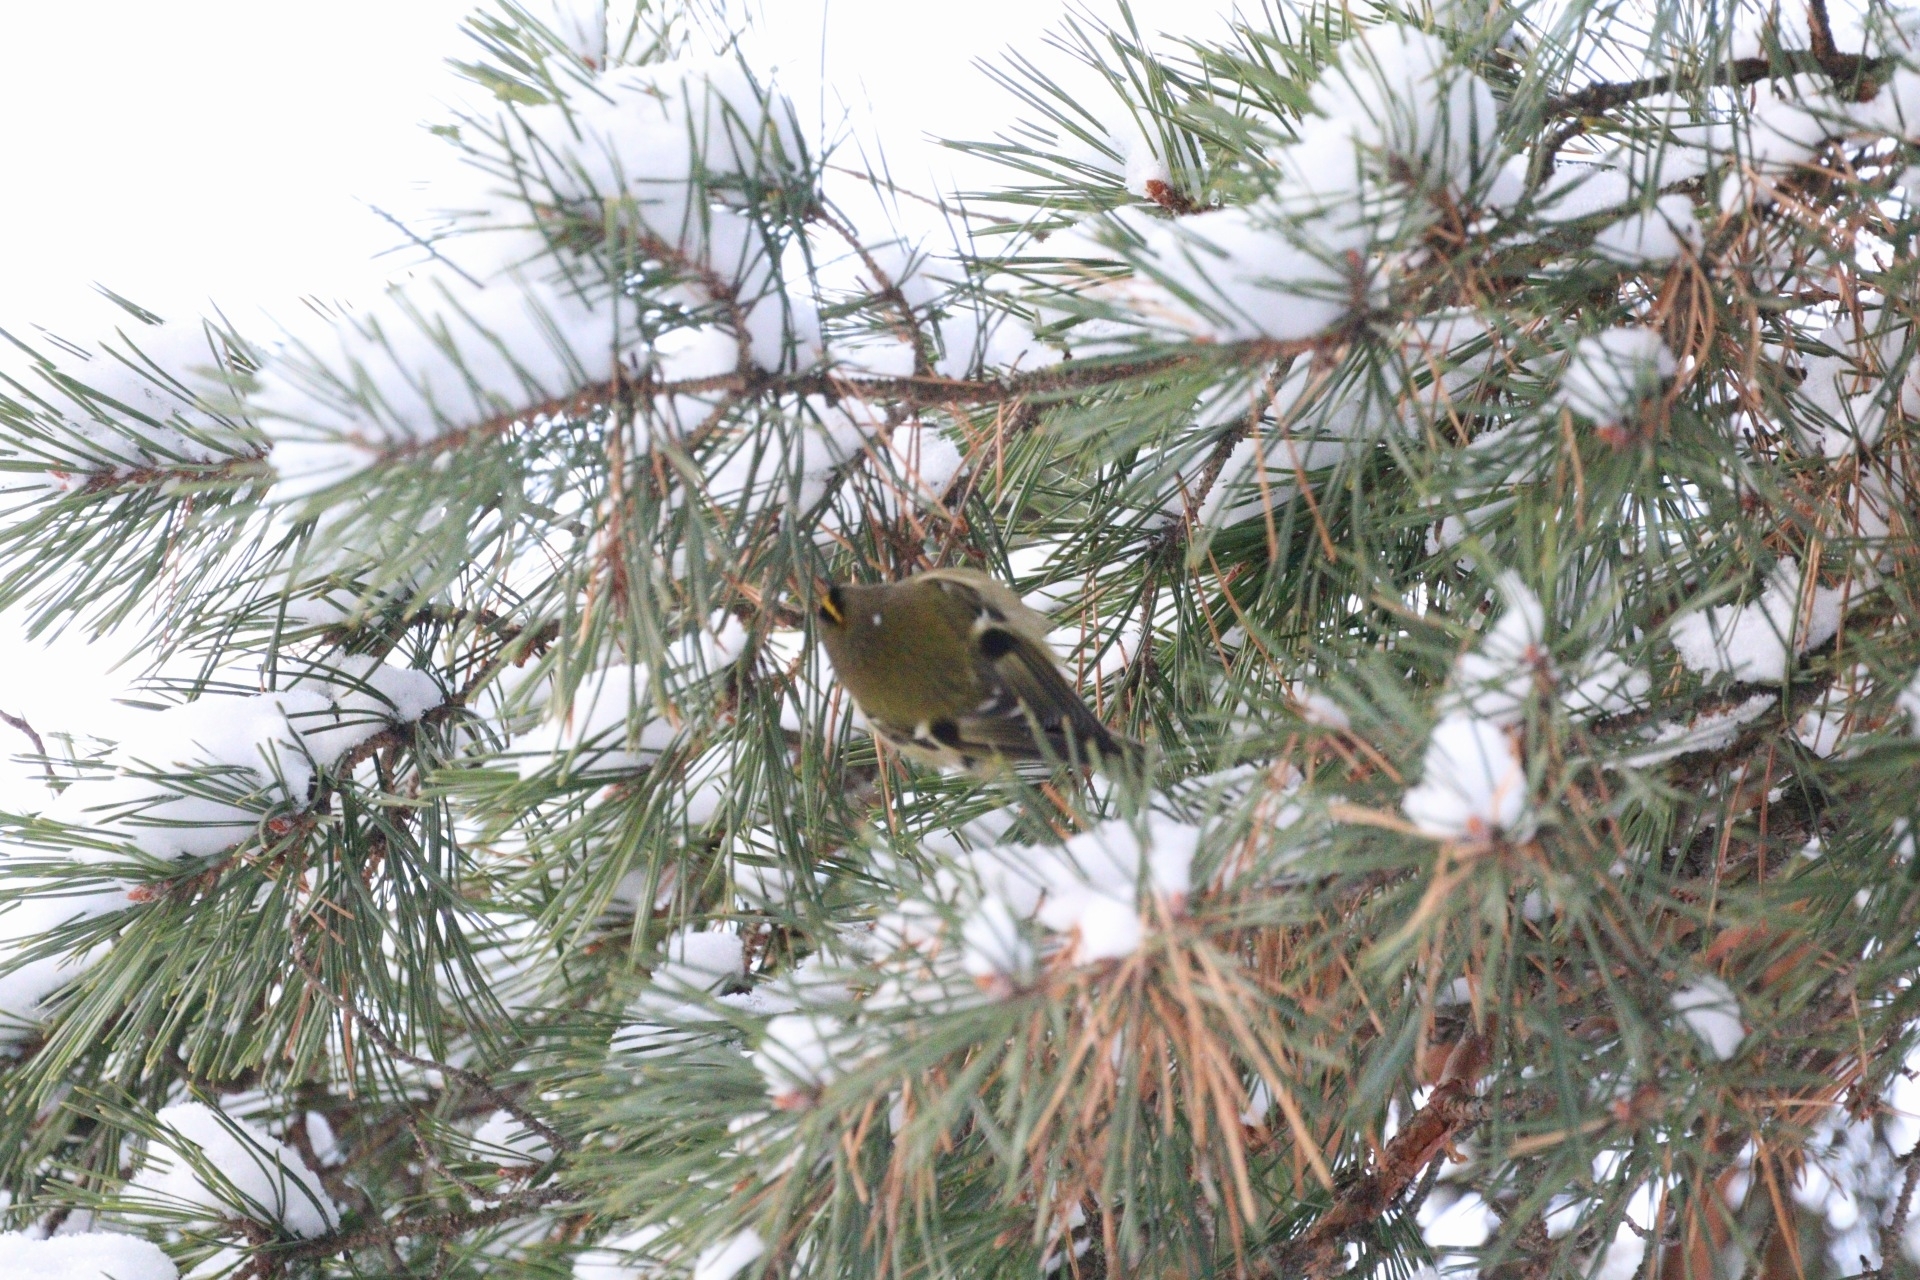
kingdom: Animalia
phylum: Chordata
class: Aves
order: Passeriformes
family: Regulidae
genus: Regulus
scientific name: Regulus regulus
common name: Goldcrest
